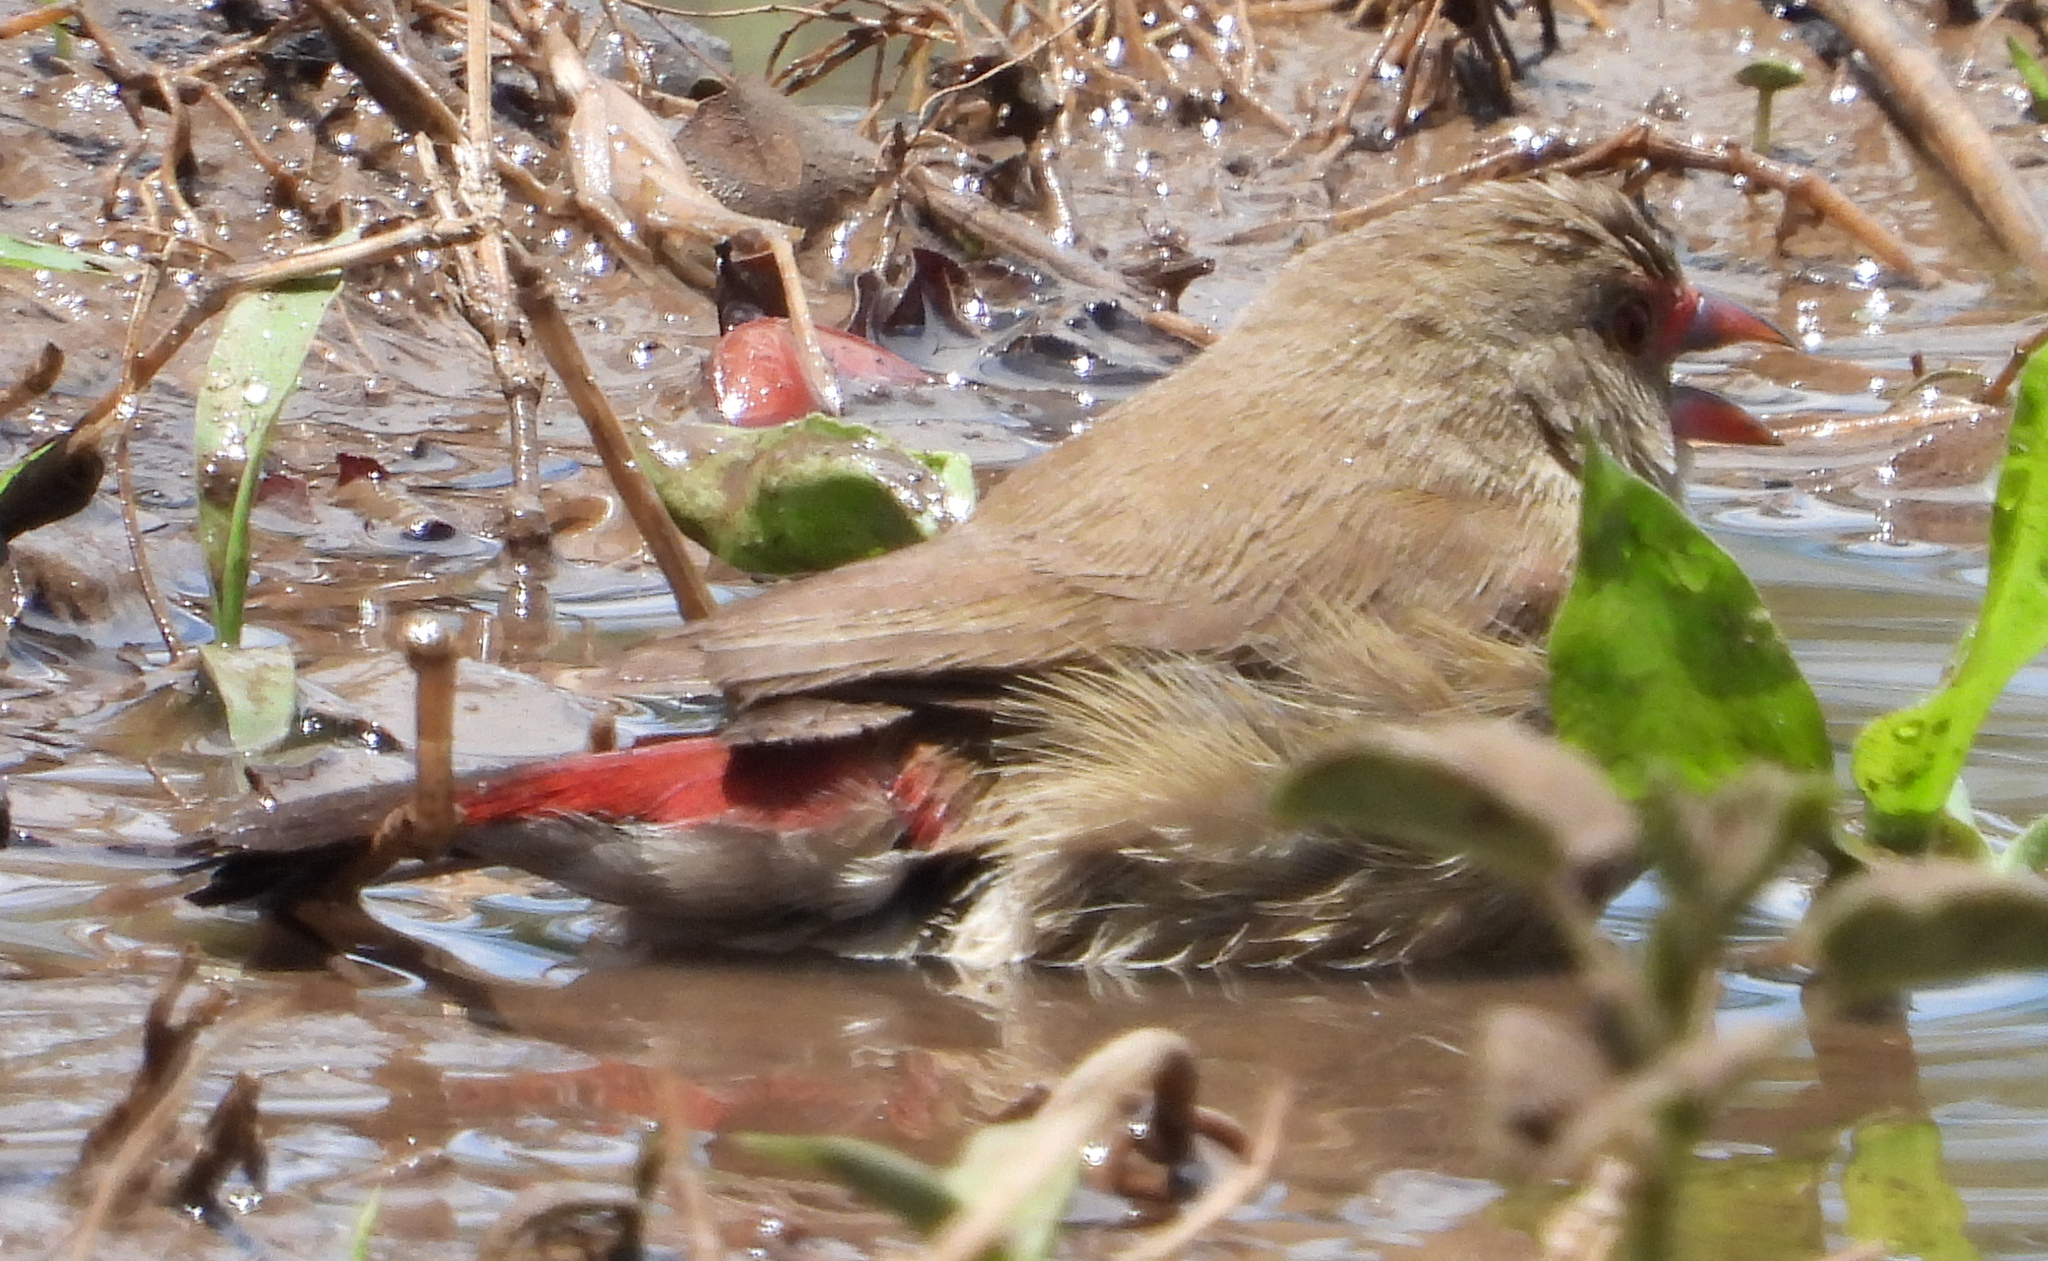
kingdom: Animalia
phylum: Chordata
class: Aves
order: Passeriformes
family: Estrildidae
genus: Lagonosticta
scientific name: Lagonosticta senegala
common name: Red-billed firefinch
